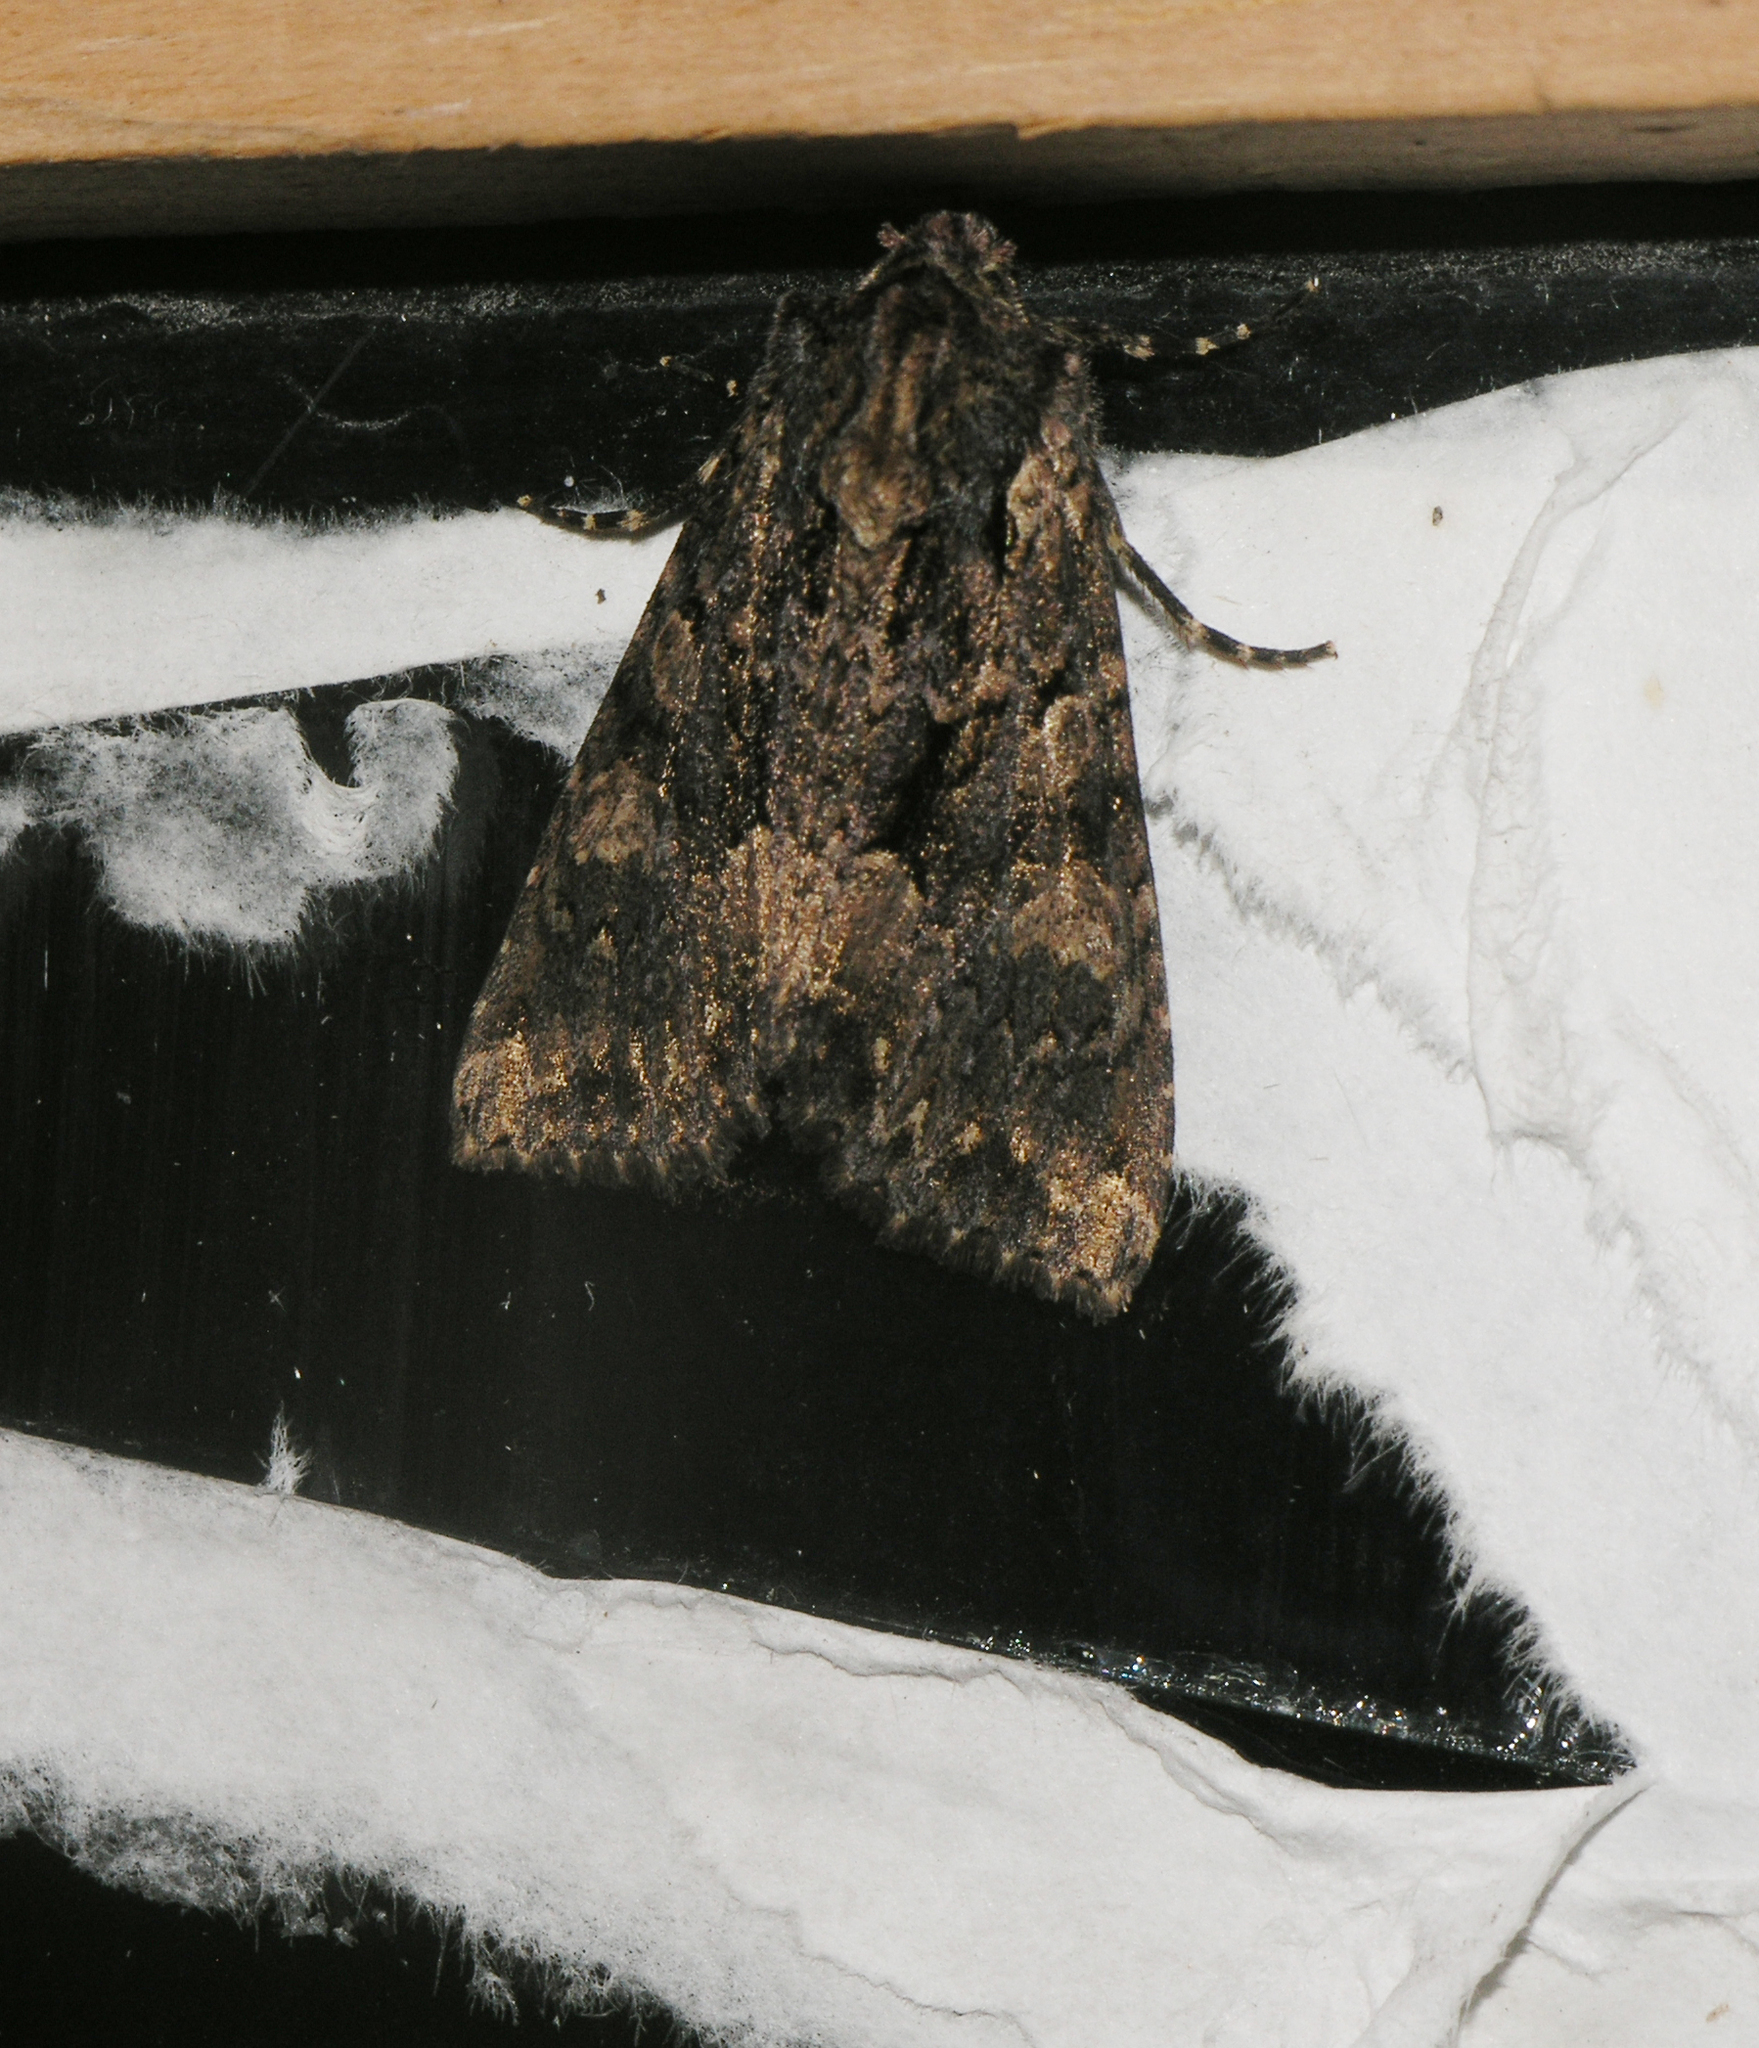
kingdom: Animalia
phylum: Arthropoda
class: Insecta
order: Lepidoptera
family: Noctuidae
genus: Mniotype
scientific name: Mniotype satura
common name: Beautiful arches
